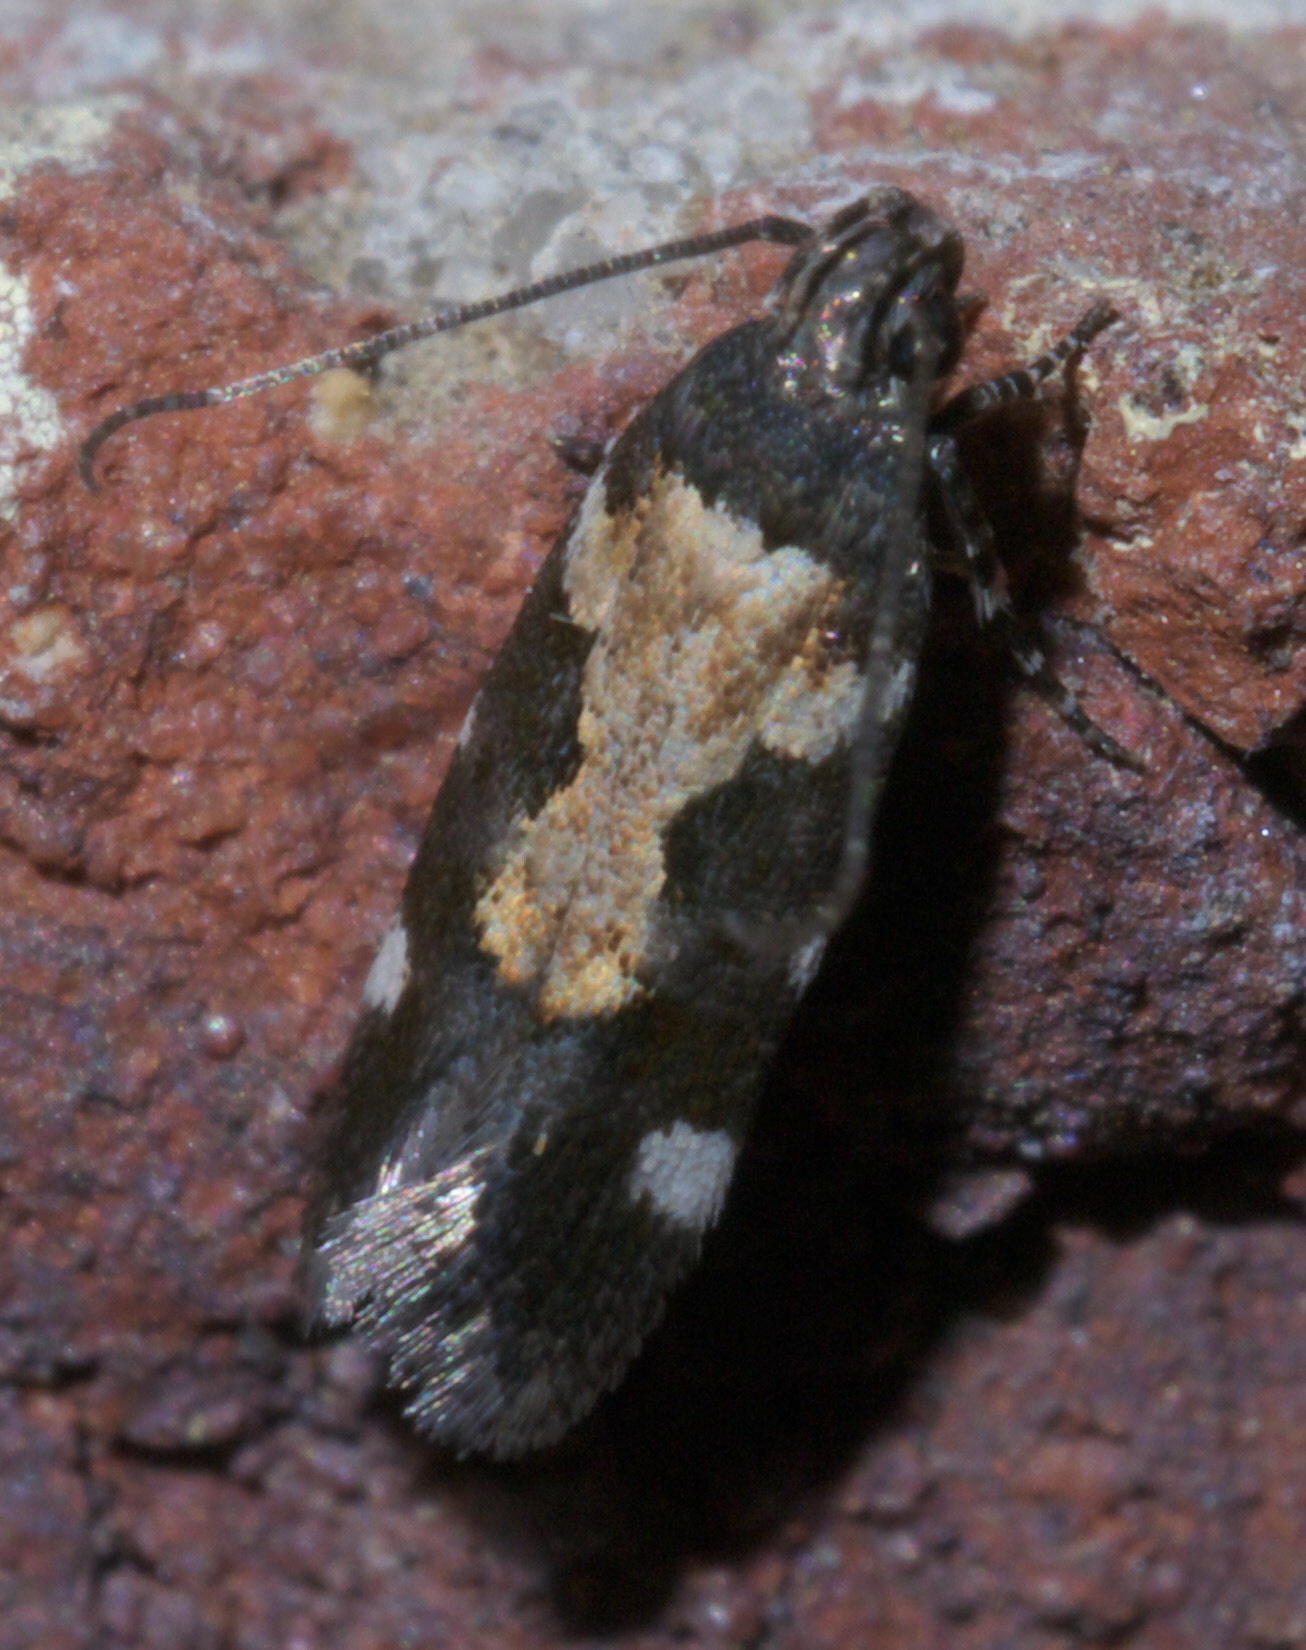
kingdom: Animalia
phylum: Arthropoda
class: Insecta
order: Lepidoptera
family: Gelechiidae
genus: Stegasta
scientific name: Stegasta bosqueella
